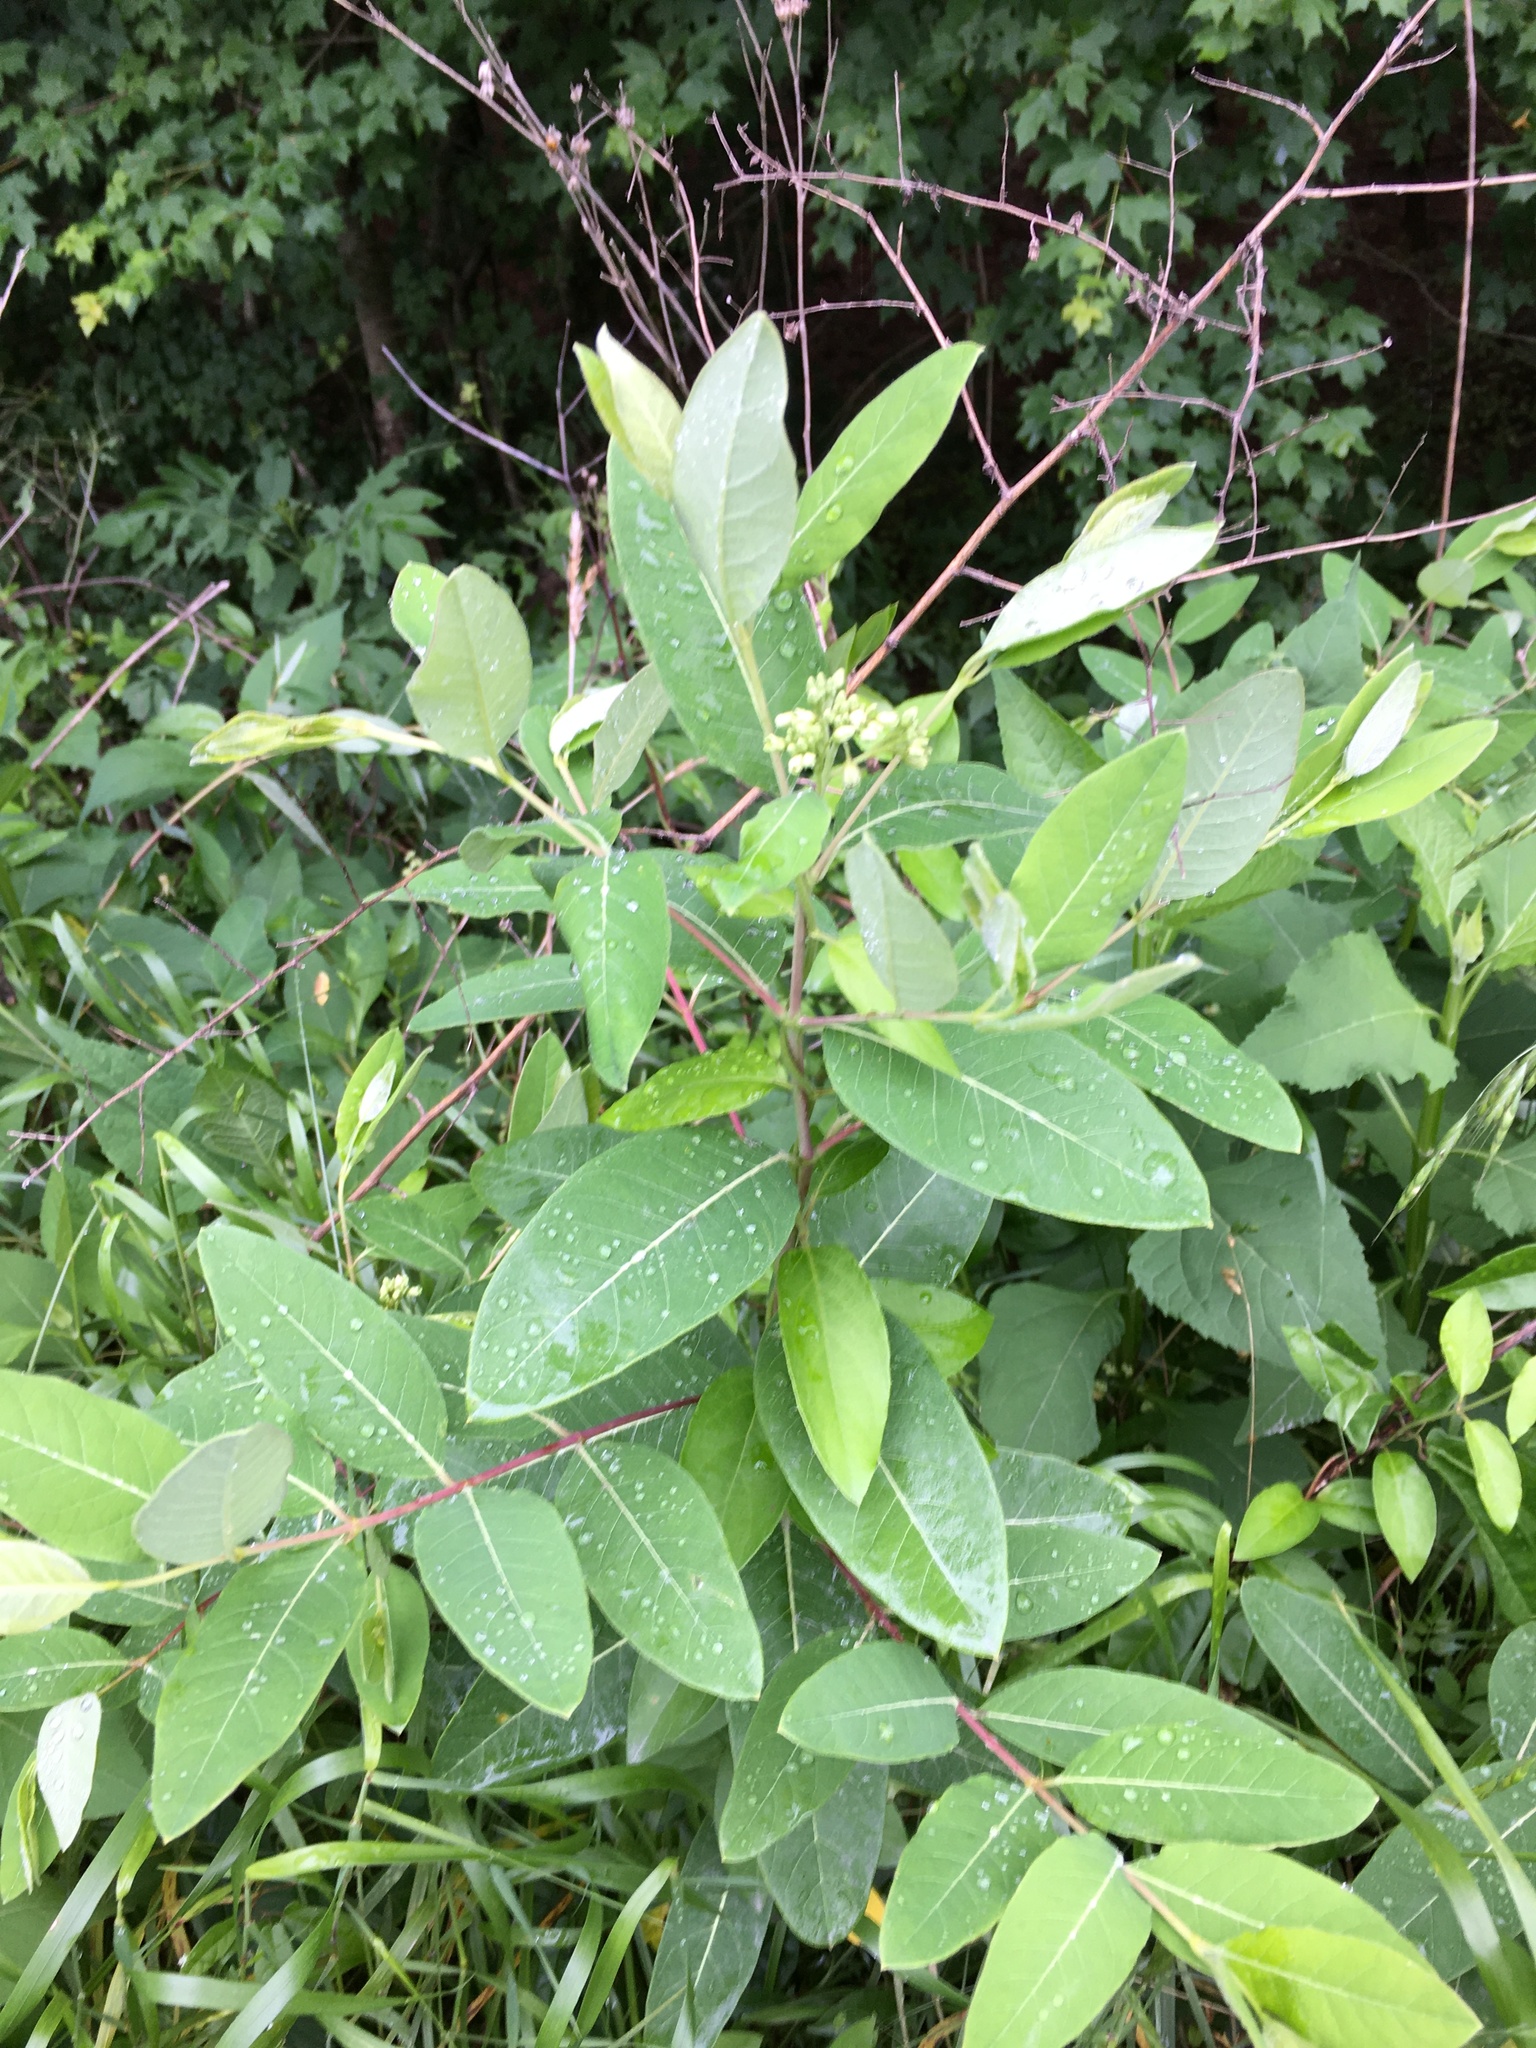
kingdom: Plantae
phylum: Tracheophyta
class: Magnoliopsida
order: Gentianales
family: Apocynaceae
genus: Apocynum
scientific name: Apocynum cannabinum
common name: Hemp dogbane
